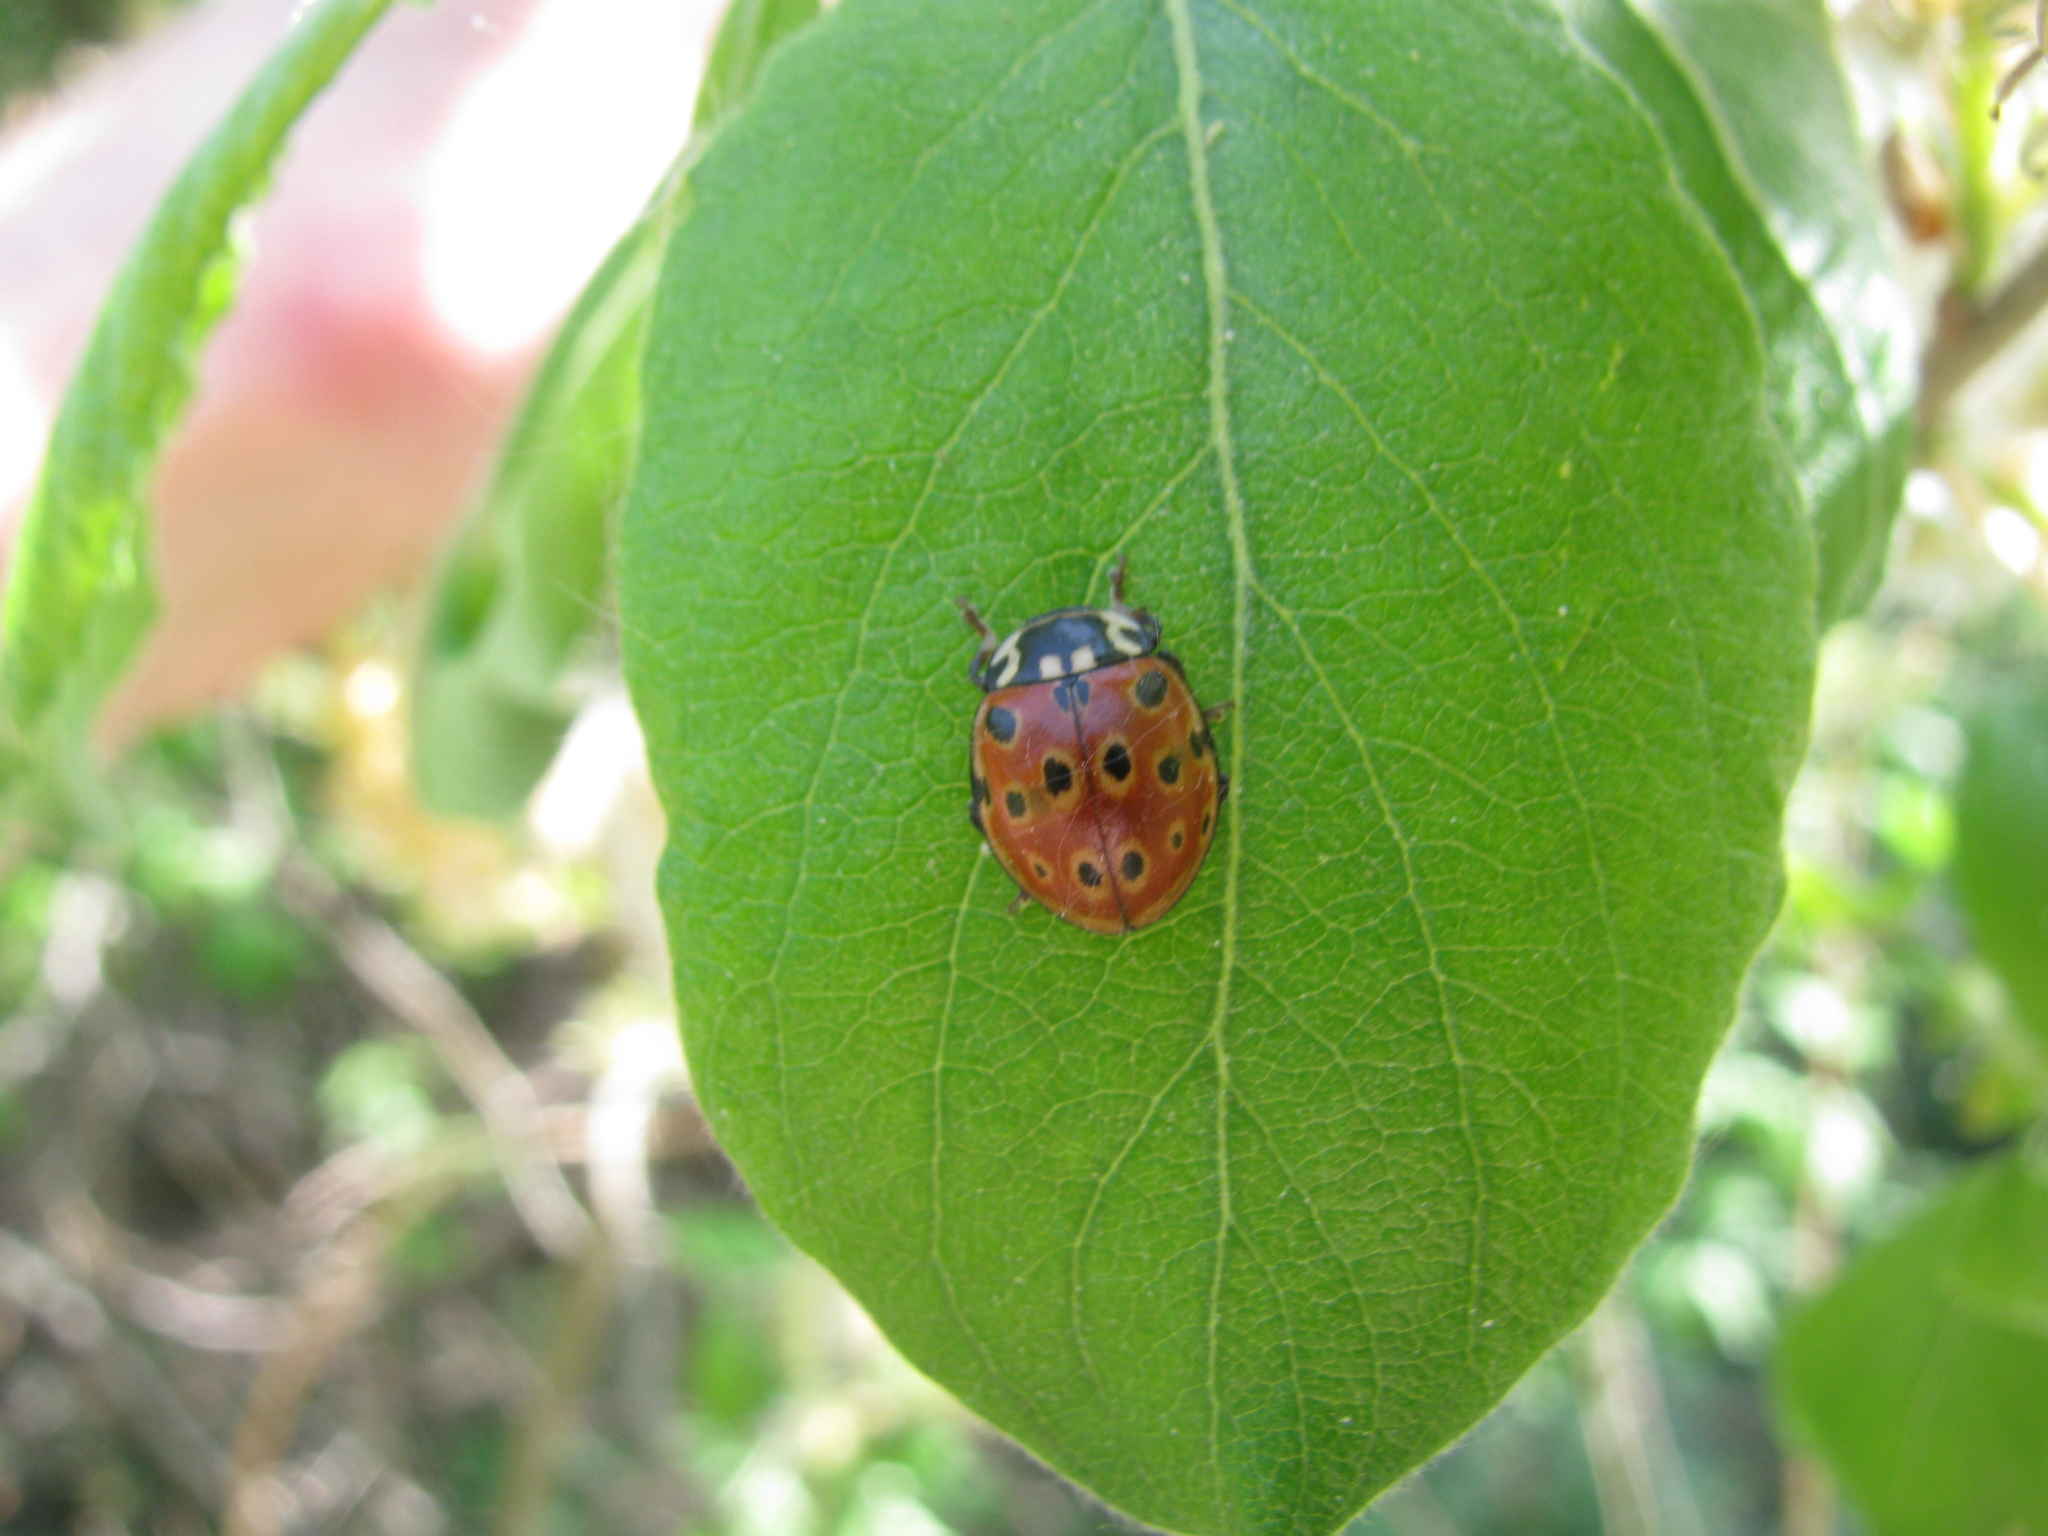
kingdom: Animalia
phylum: Arthropoda
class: Insecta
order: Coleoptera
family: Coccinellidae
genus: Anatis
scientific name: Anatis ocellata
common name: Eyed ladybird
